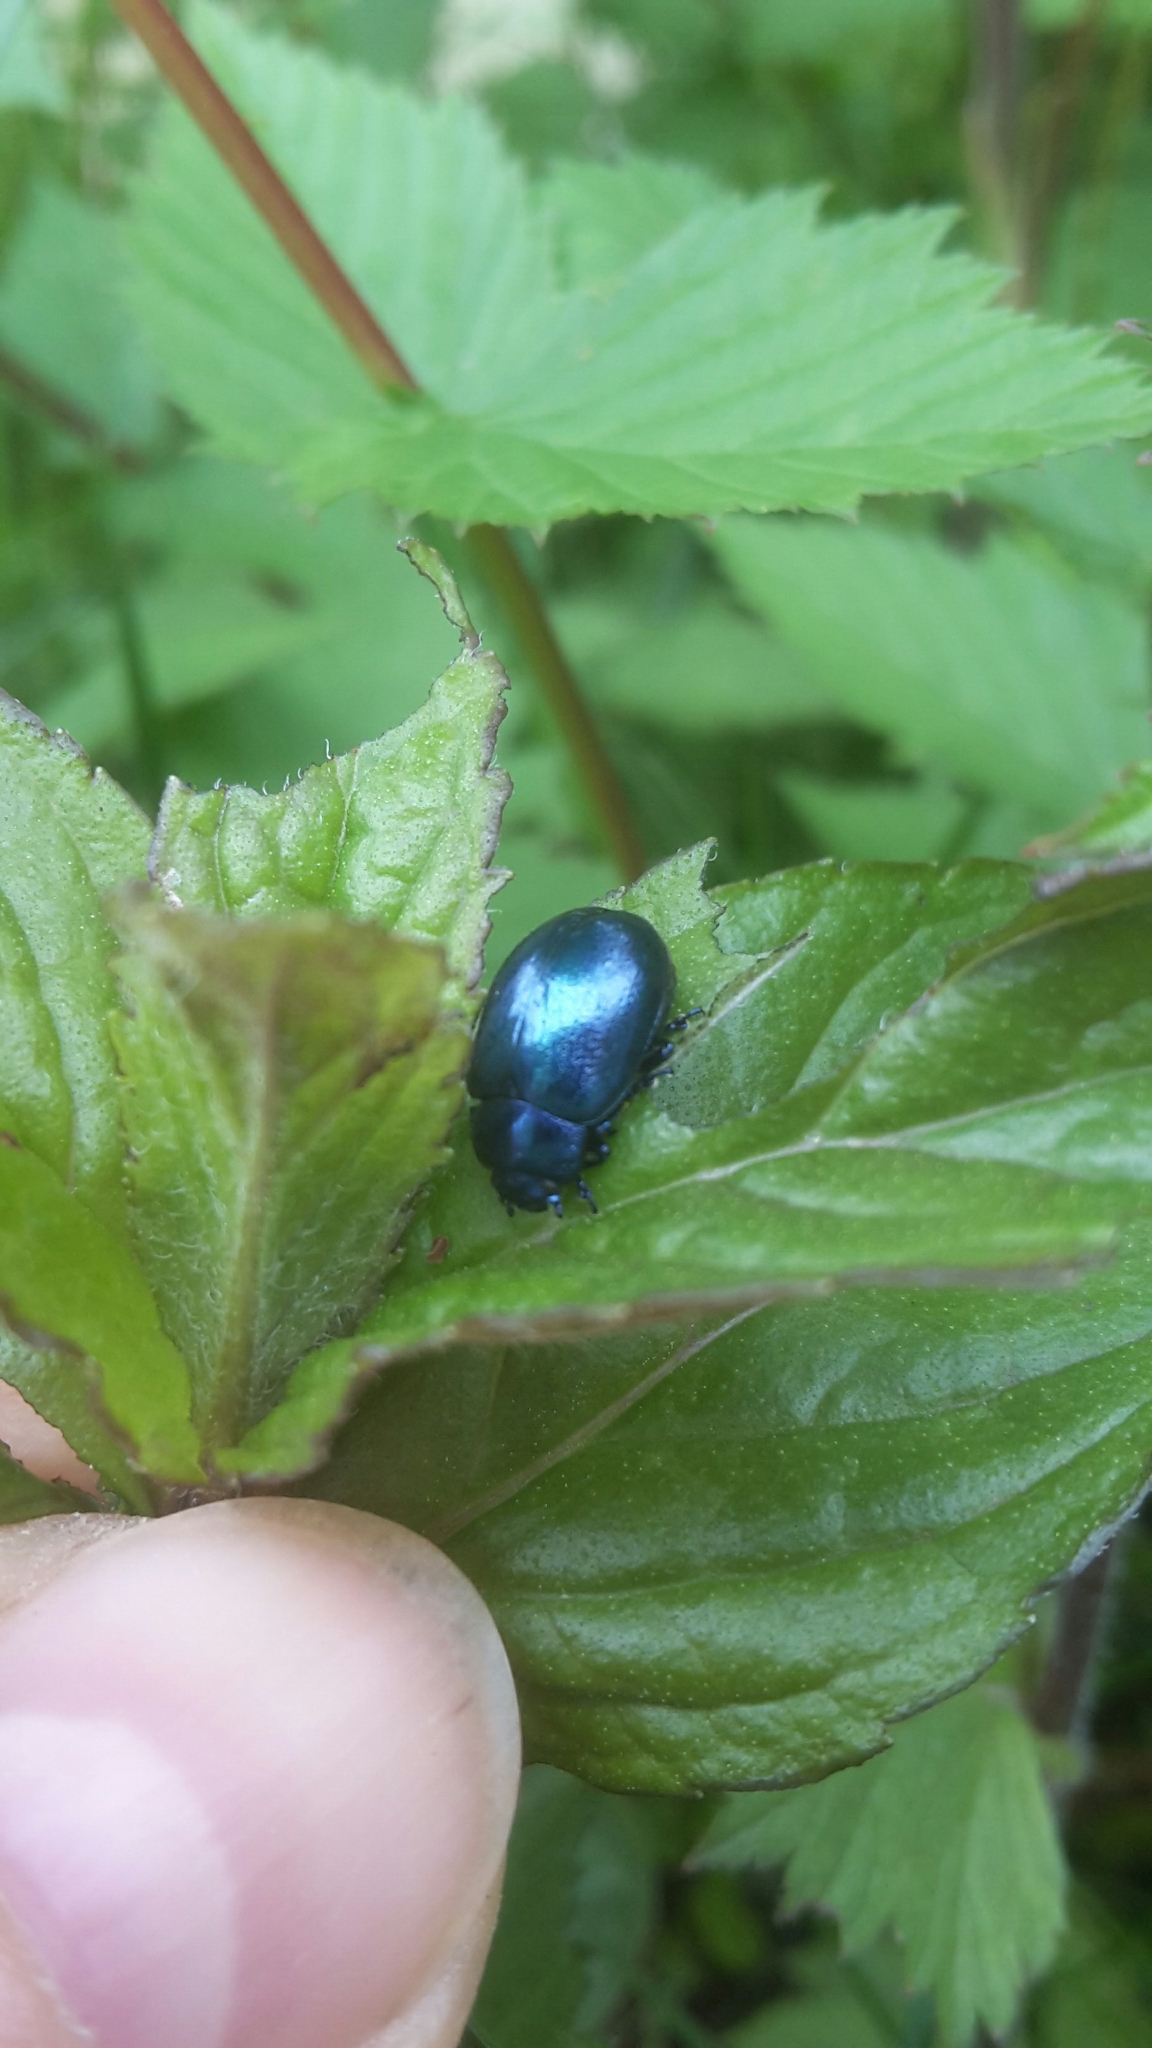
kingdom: Animalia
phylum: Arthropoda
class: Insecta
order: Coleoptera
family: Chrysomelidae
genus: Chrysolina
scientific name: Chrysolina coerulans
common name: Blue mint beetle
